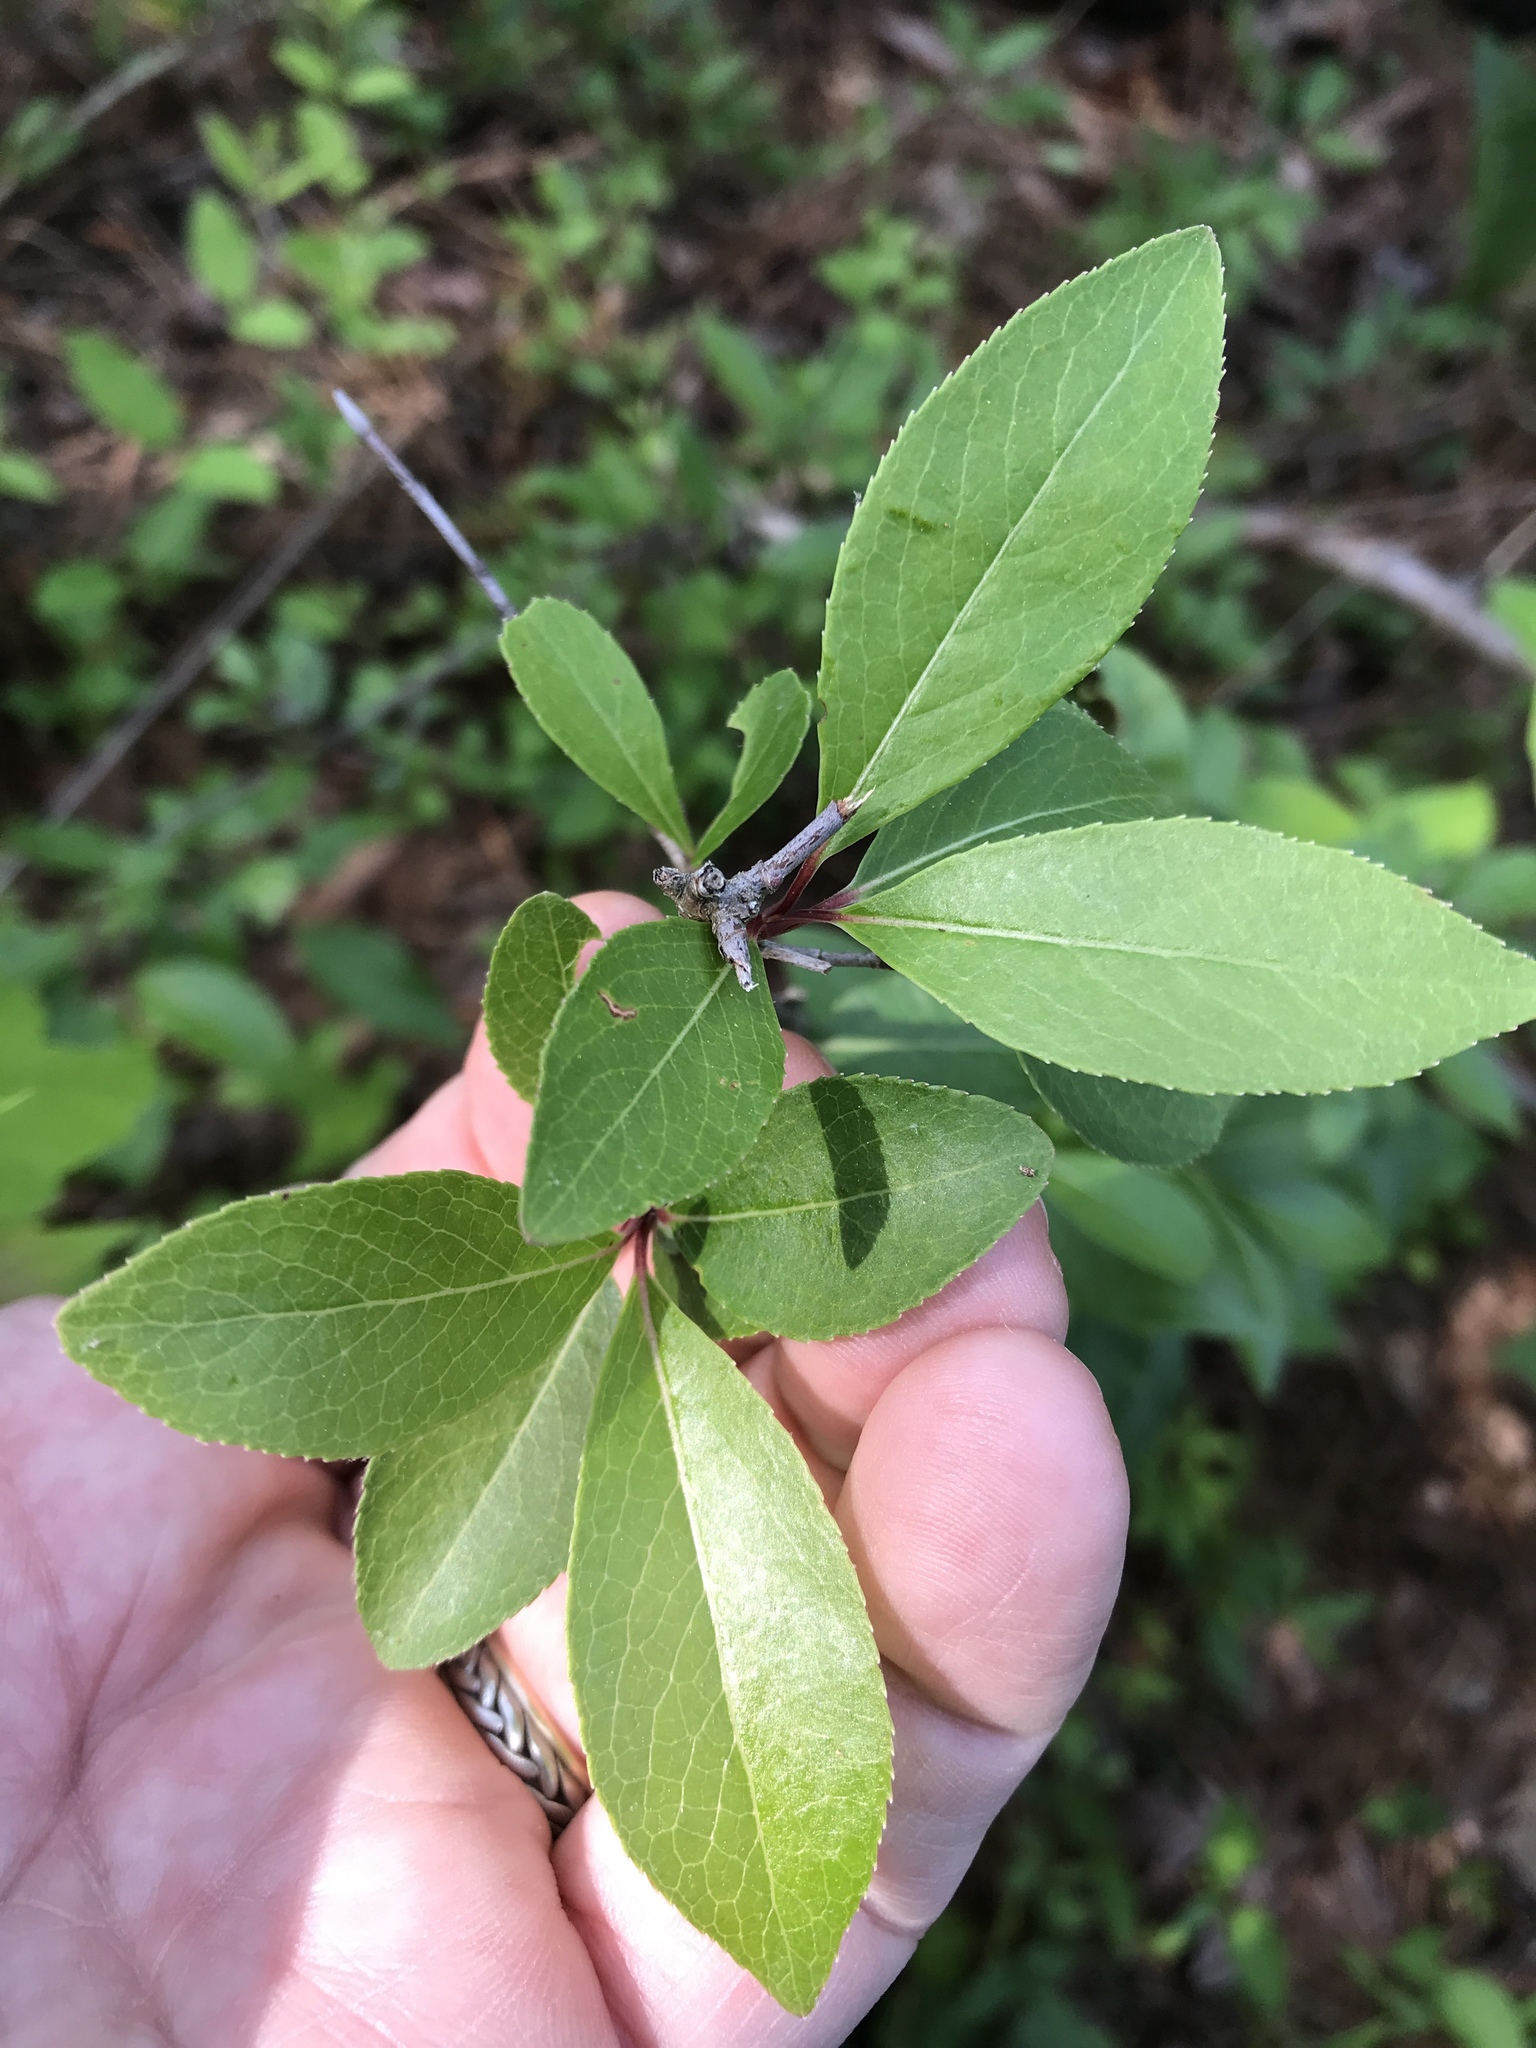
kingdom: Plantae
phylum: Tracheophyta
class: Magnoliopsida
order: Dipsacales
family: Viburnaceae
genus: Viburnum
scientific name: Viburnum prunifolium
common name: Black haw
